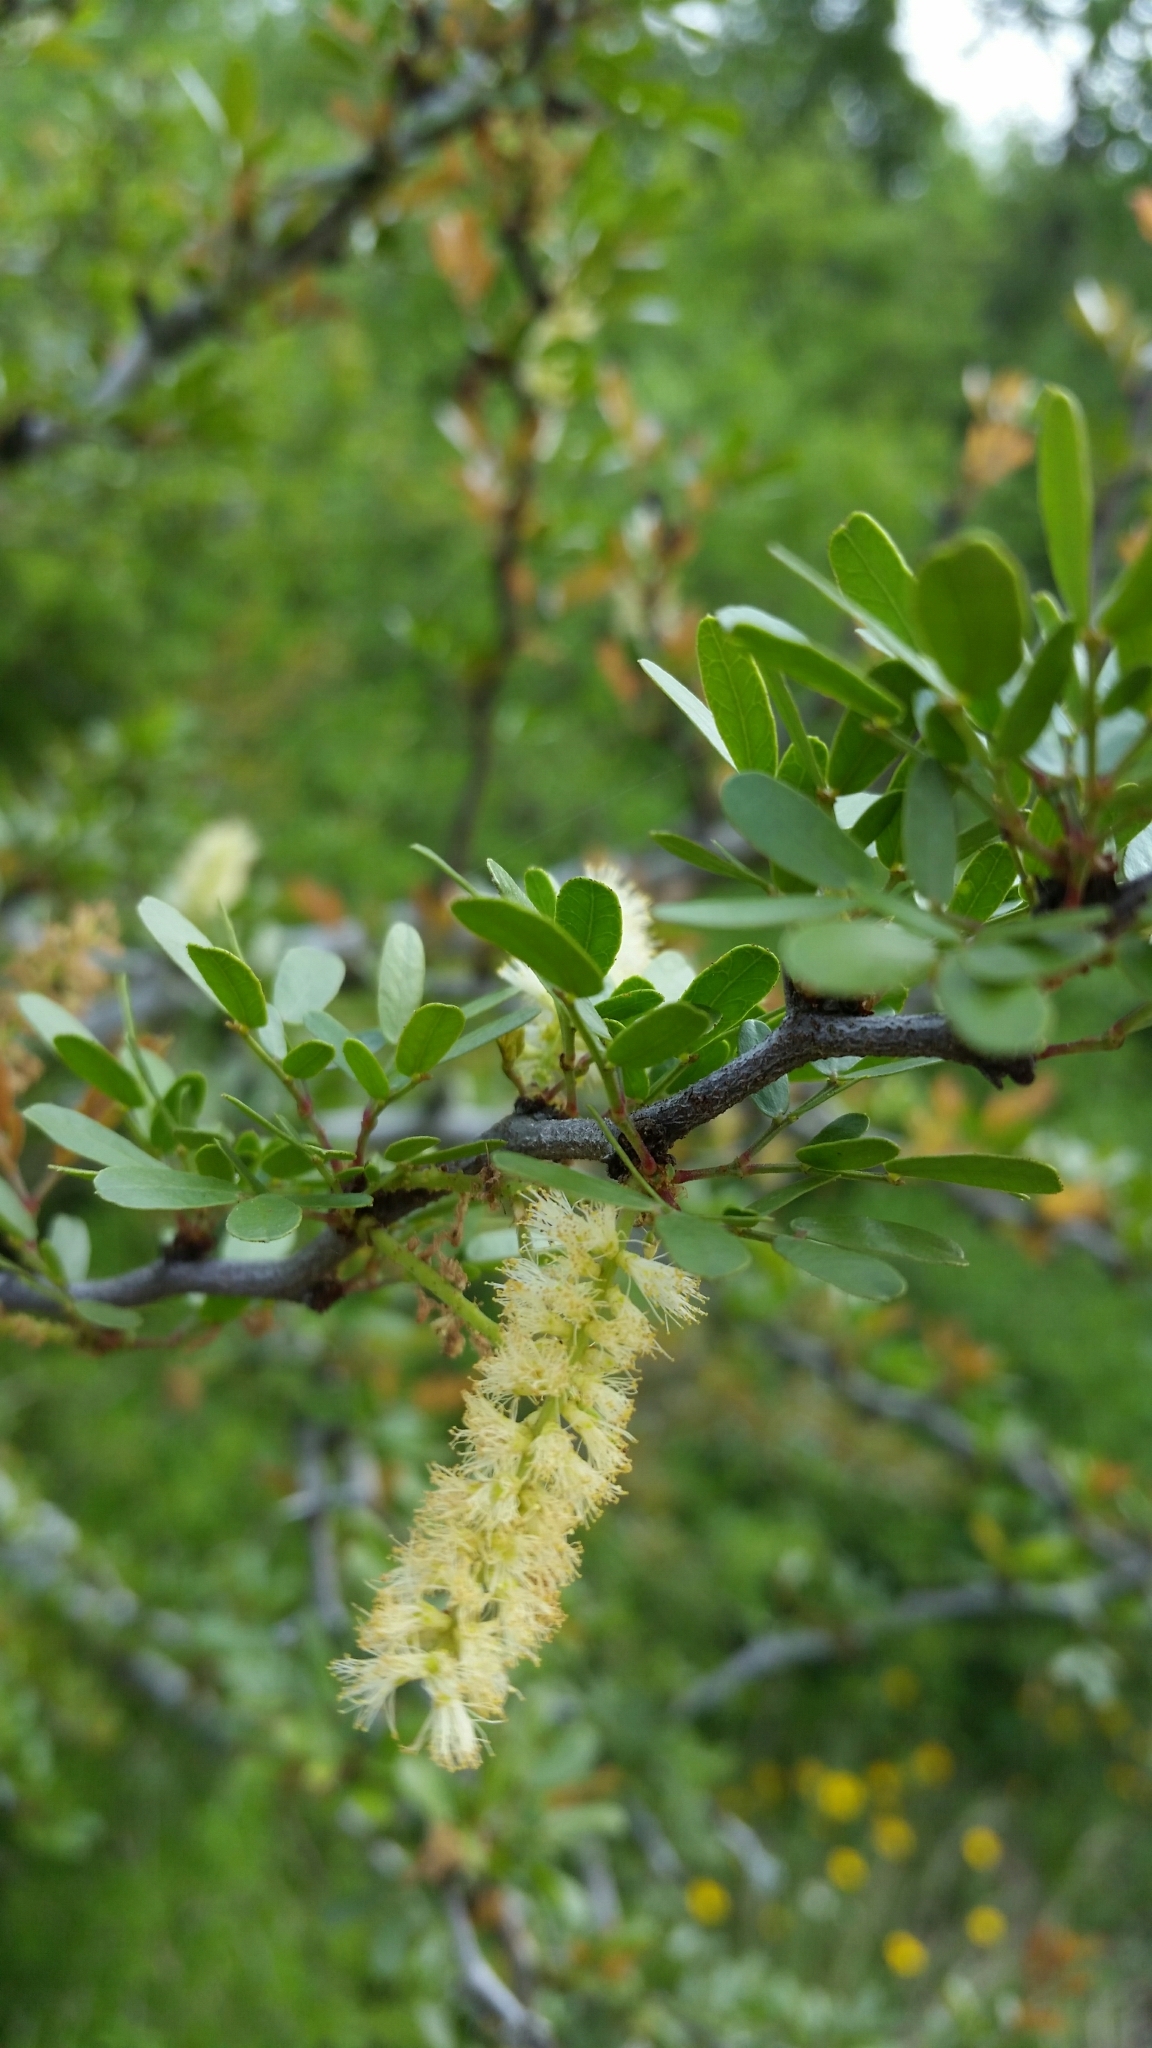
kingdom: Plantae
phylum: Tracheophyta
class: Magnoliopsida
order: Fabales
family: Fabaceae
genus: Vachellia
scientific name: Vachellia rigidula
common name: Blackbrush
